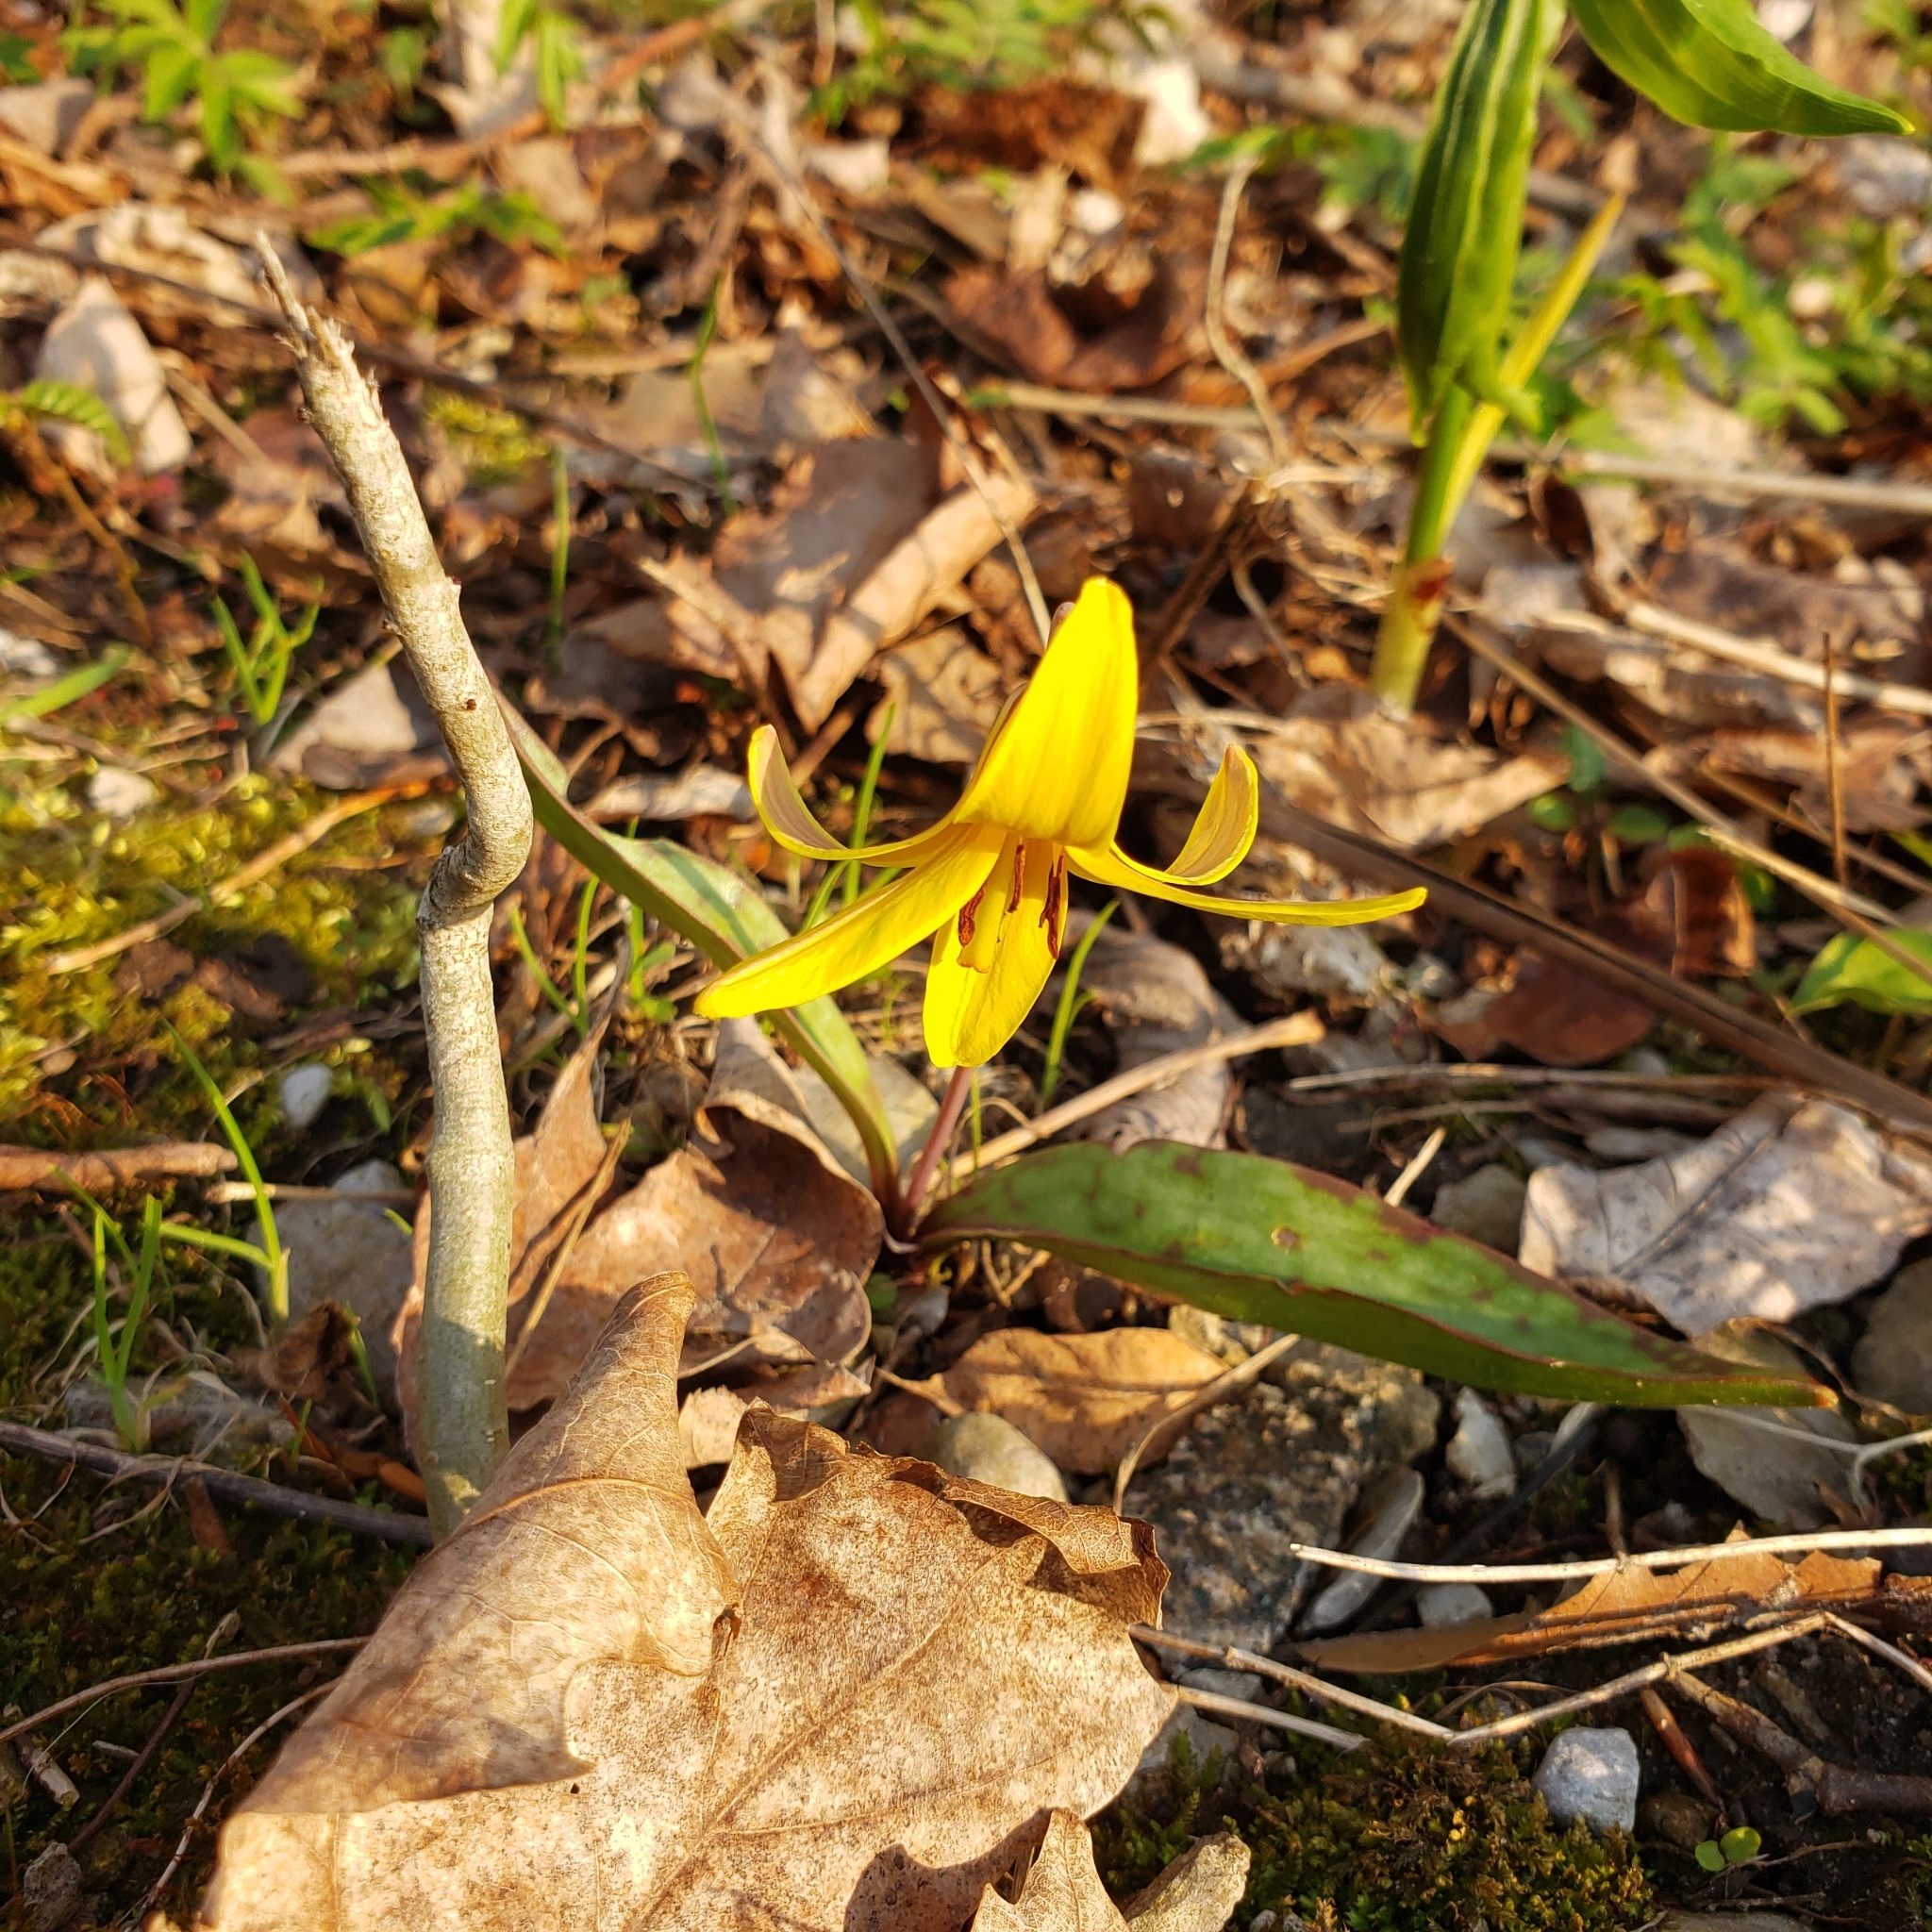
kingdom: Plantae
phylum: Tracheophyta
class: Liliopsida
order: Liliales
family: Liliaceae
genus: Erythronium
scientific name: Erythronium americanum
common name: Yellow adder's-tongue
